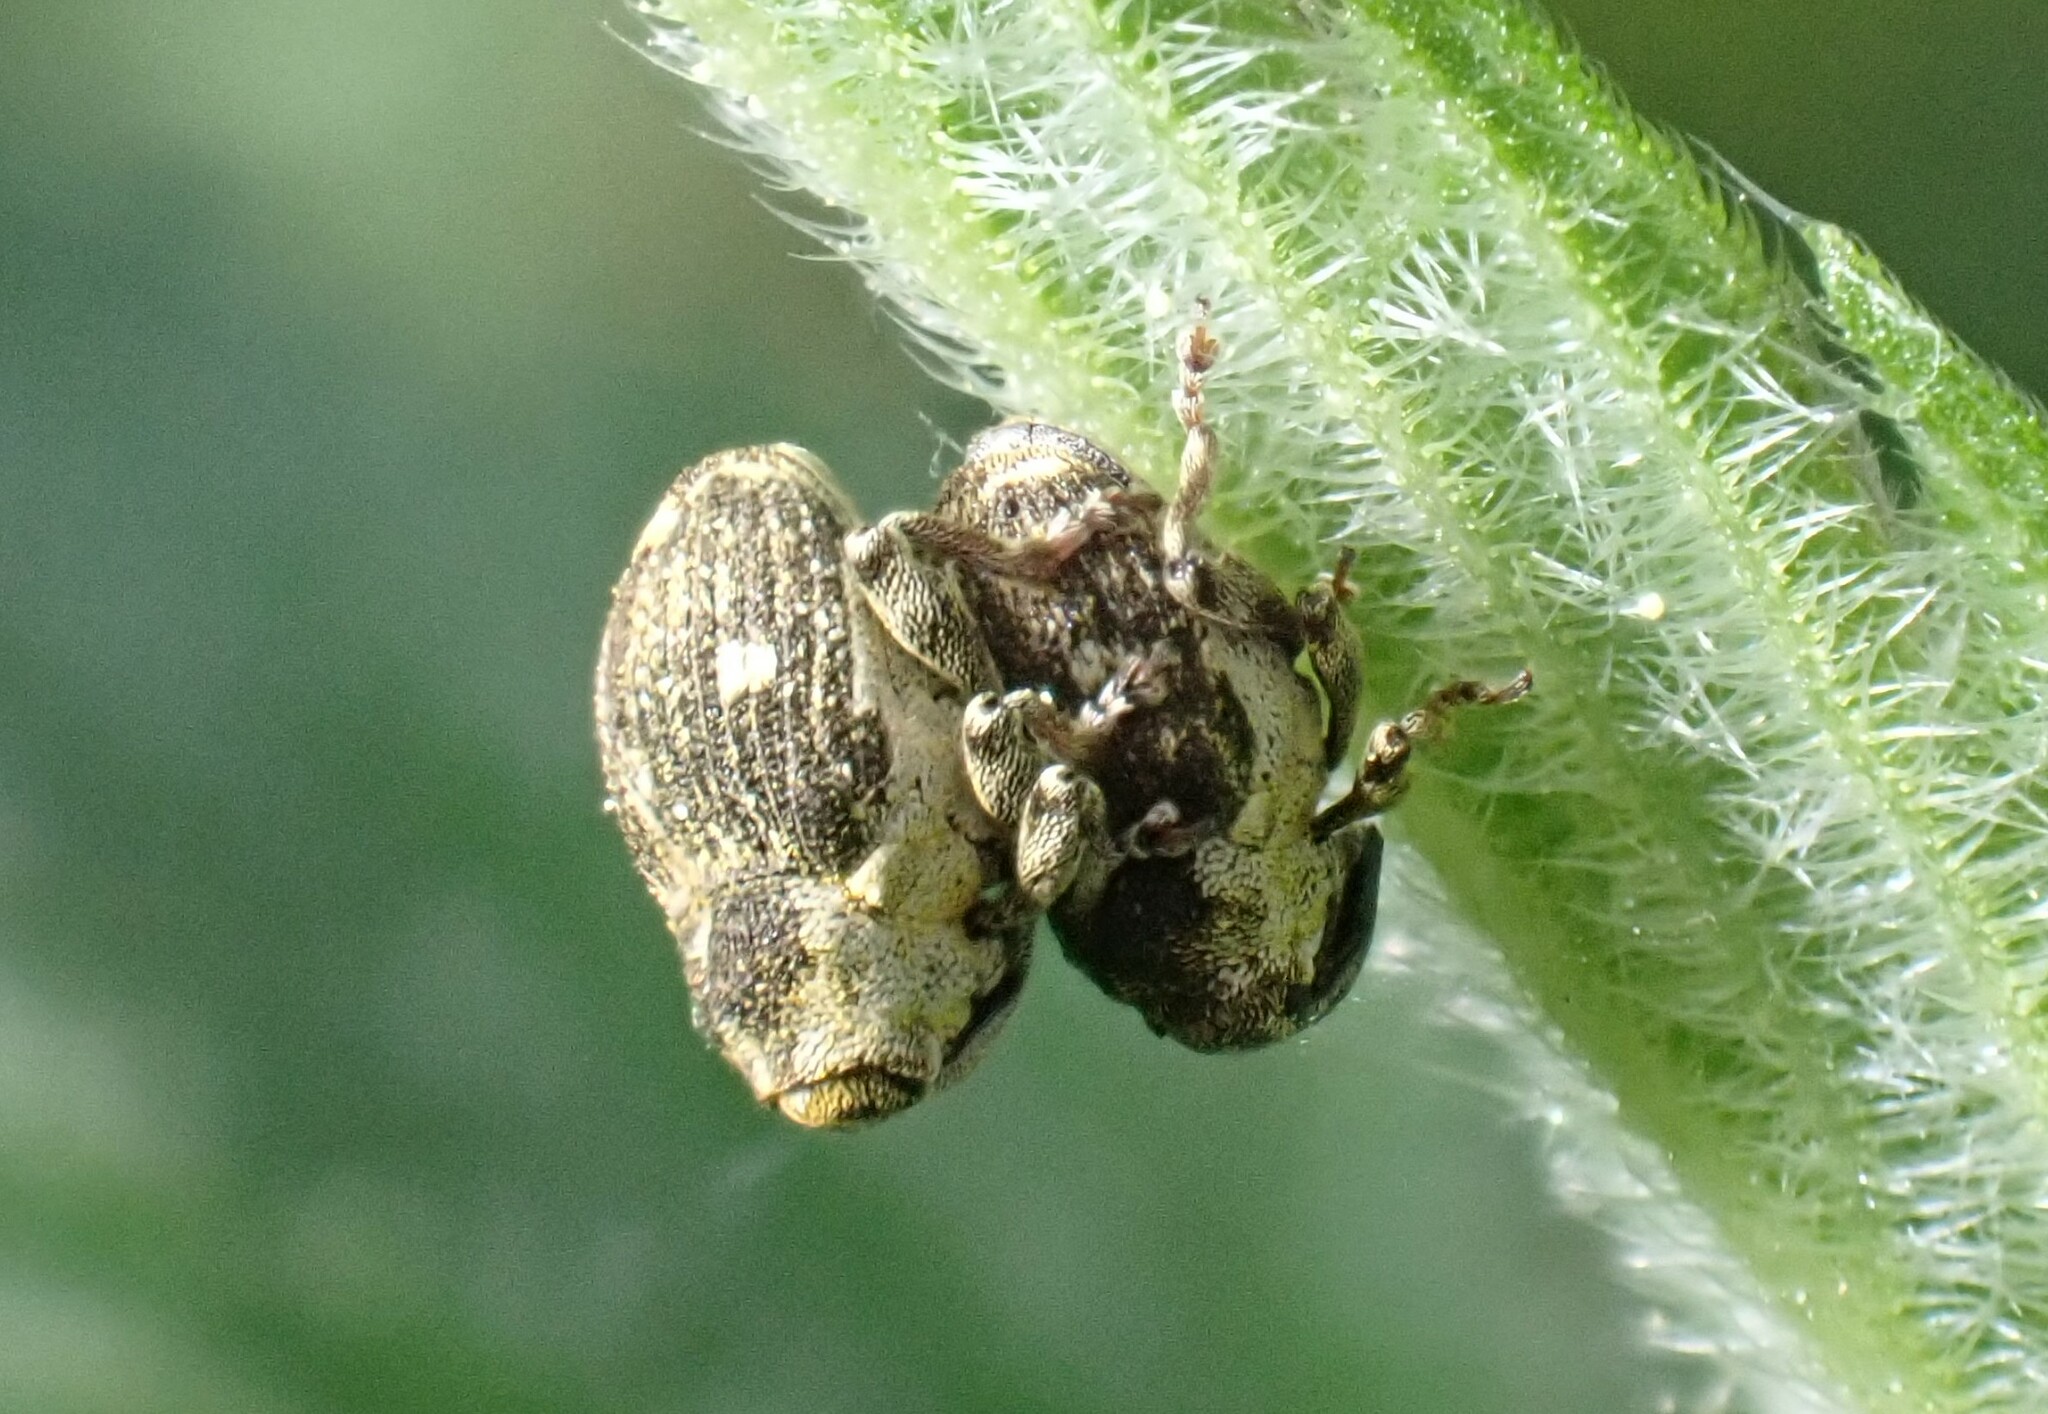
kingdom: Animalia
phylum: Arthropoda
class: Insecta
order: Coleoptera
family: Curculionidae
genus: Nedyus
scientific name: Nedyus quadrimaculatus
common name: Small nettle weevil
